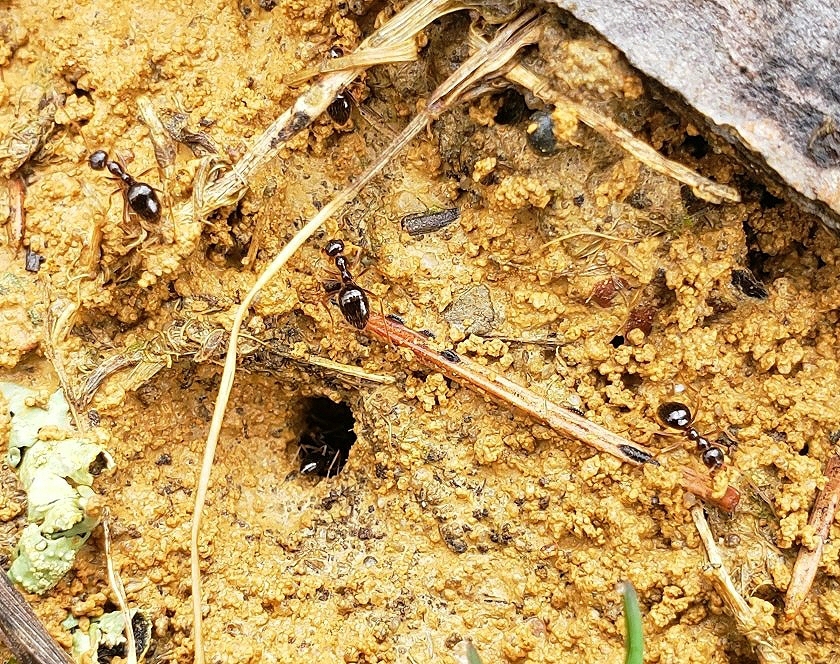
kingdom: Animalia
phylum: Arthropoda
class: Insecta
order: Hymenoptera
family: Formicidae
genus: Prenolepis
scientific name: Prenolepis imparis
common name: Small honey ant
